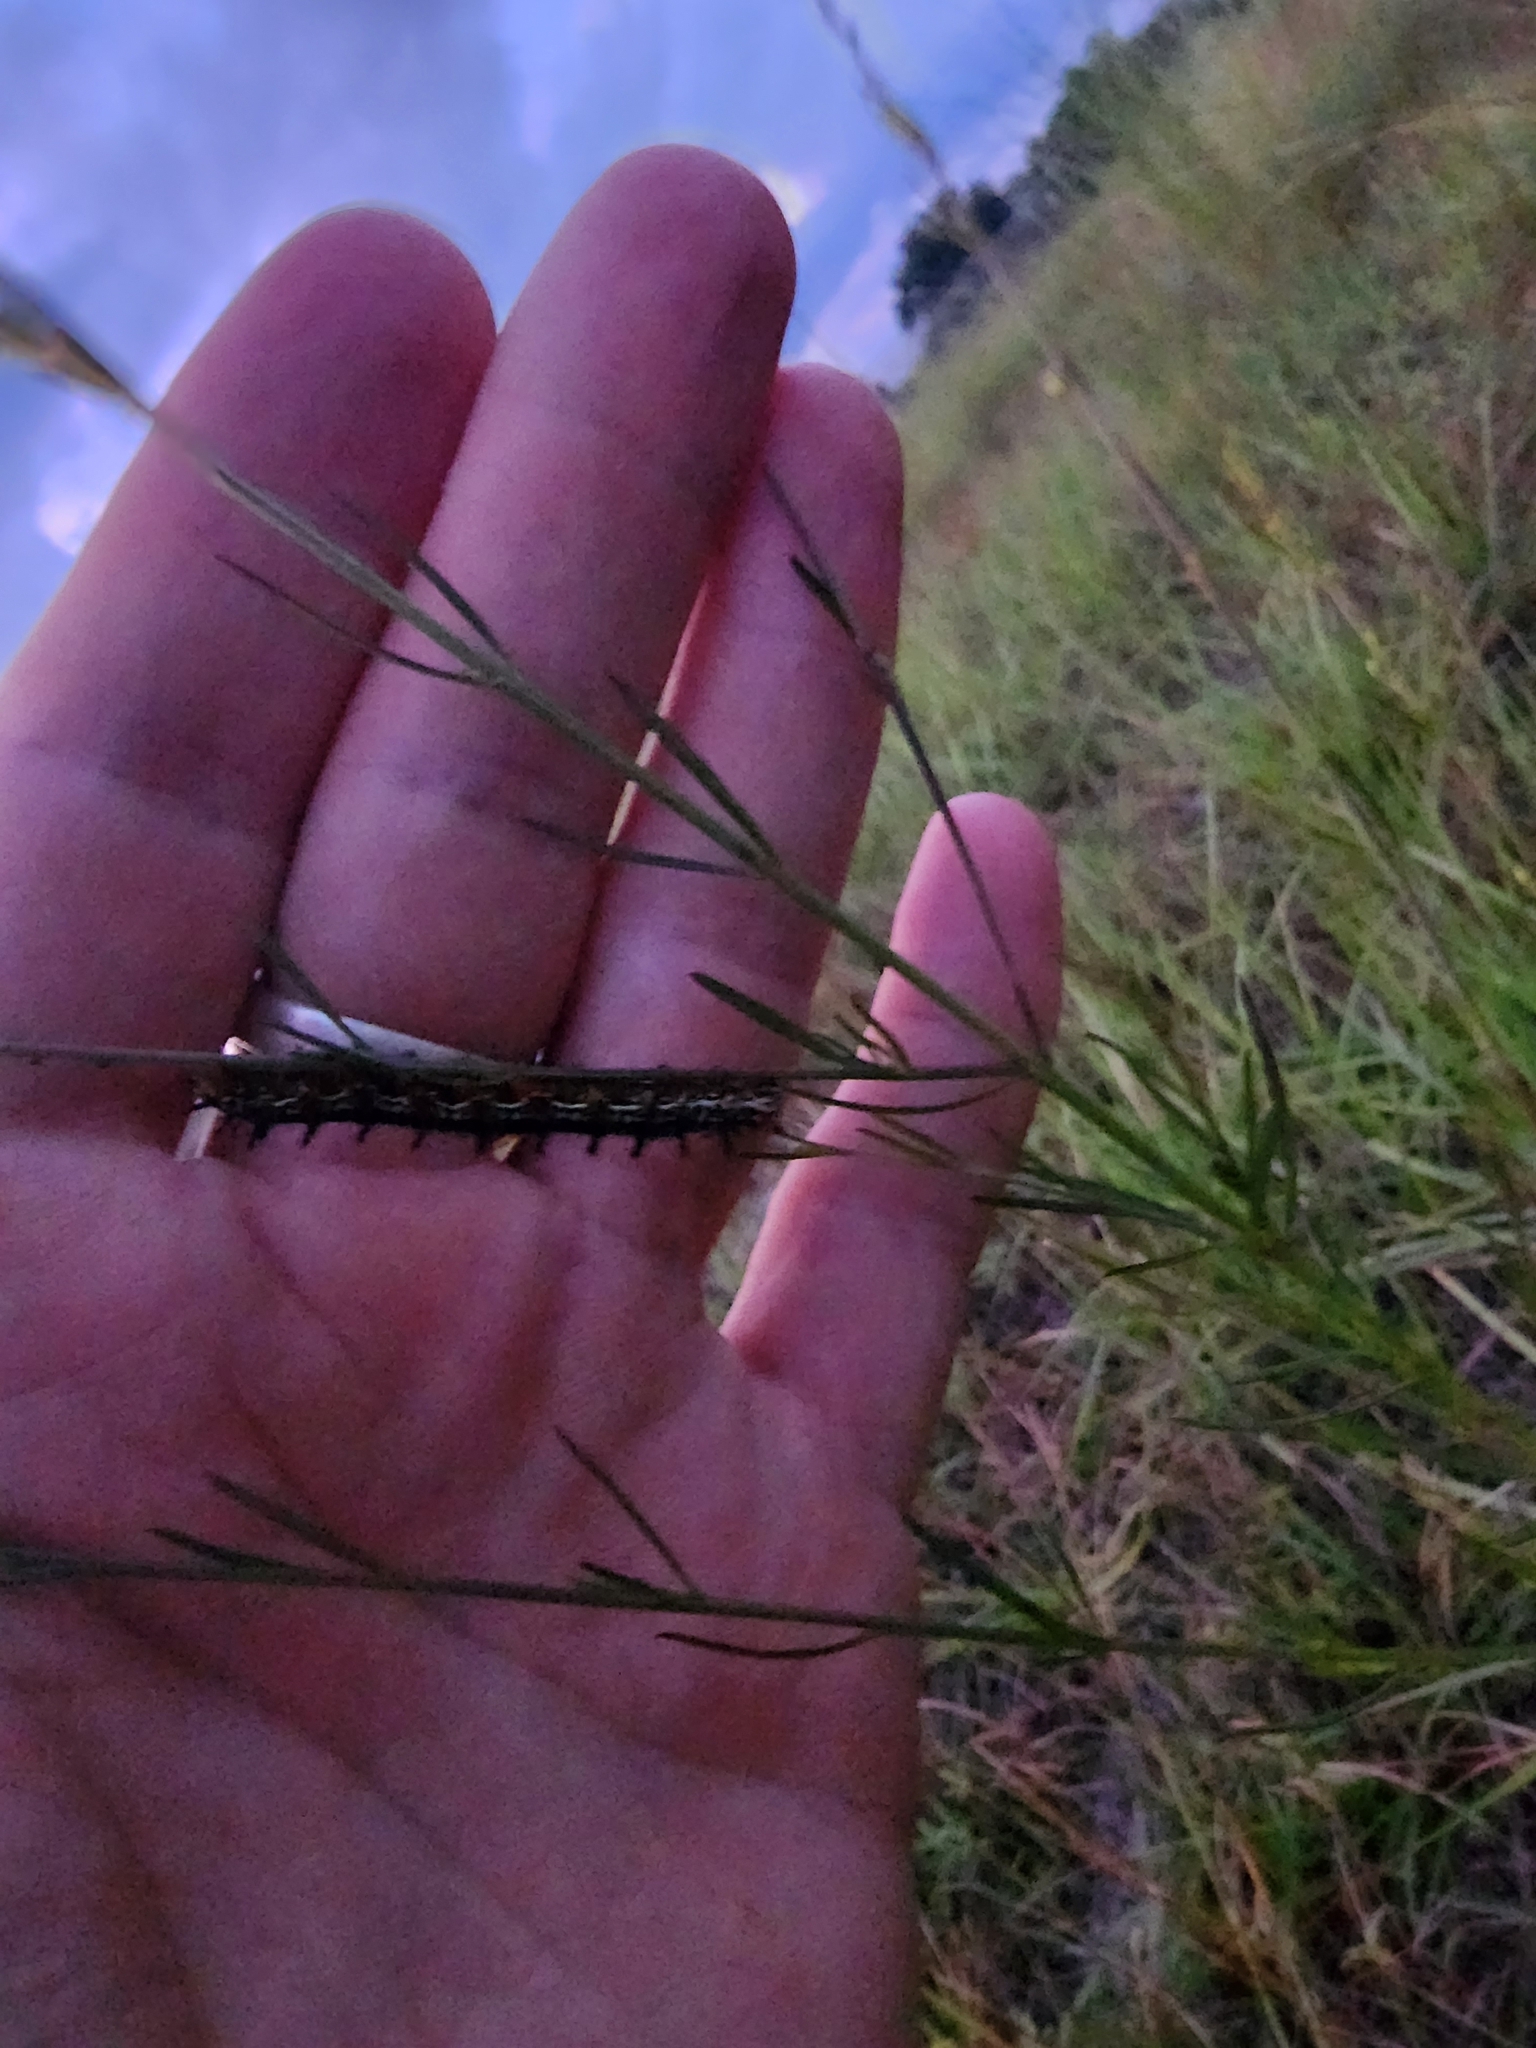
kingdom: Animalia
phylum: Arthropoda
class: Insecta
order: Lepidoptera
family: Nymphalidae
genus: Junonia
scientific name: Junonia coenia
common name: Common buckeye
